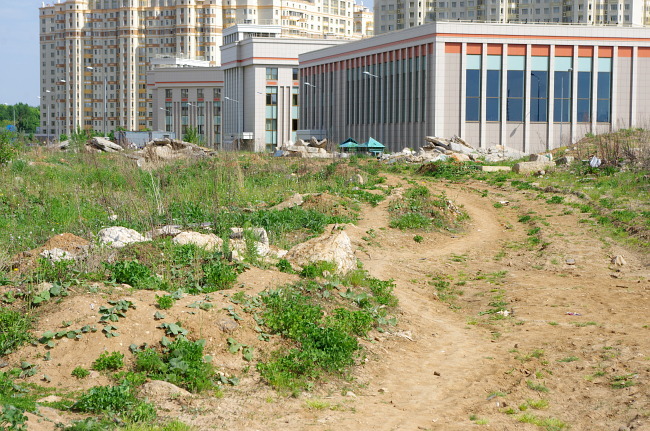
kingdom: Animalia
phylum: Chordata
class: Aves
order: Passeriformes
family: Muscicapidae
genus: Oenanthe
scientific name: Oenanthe oenanthe
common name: Northern wheatear
